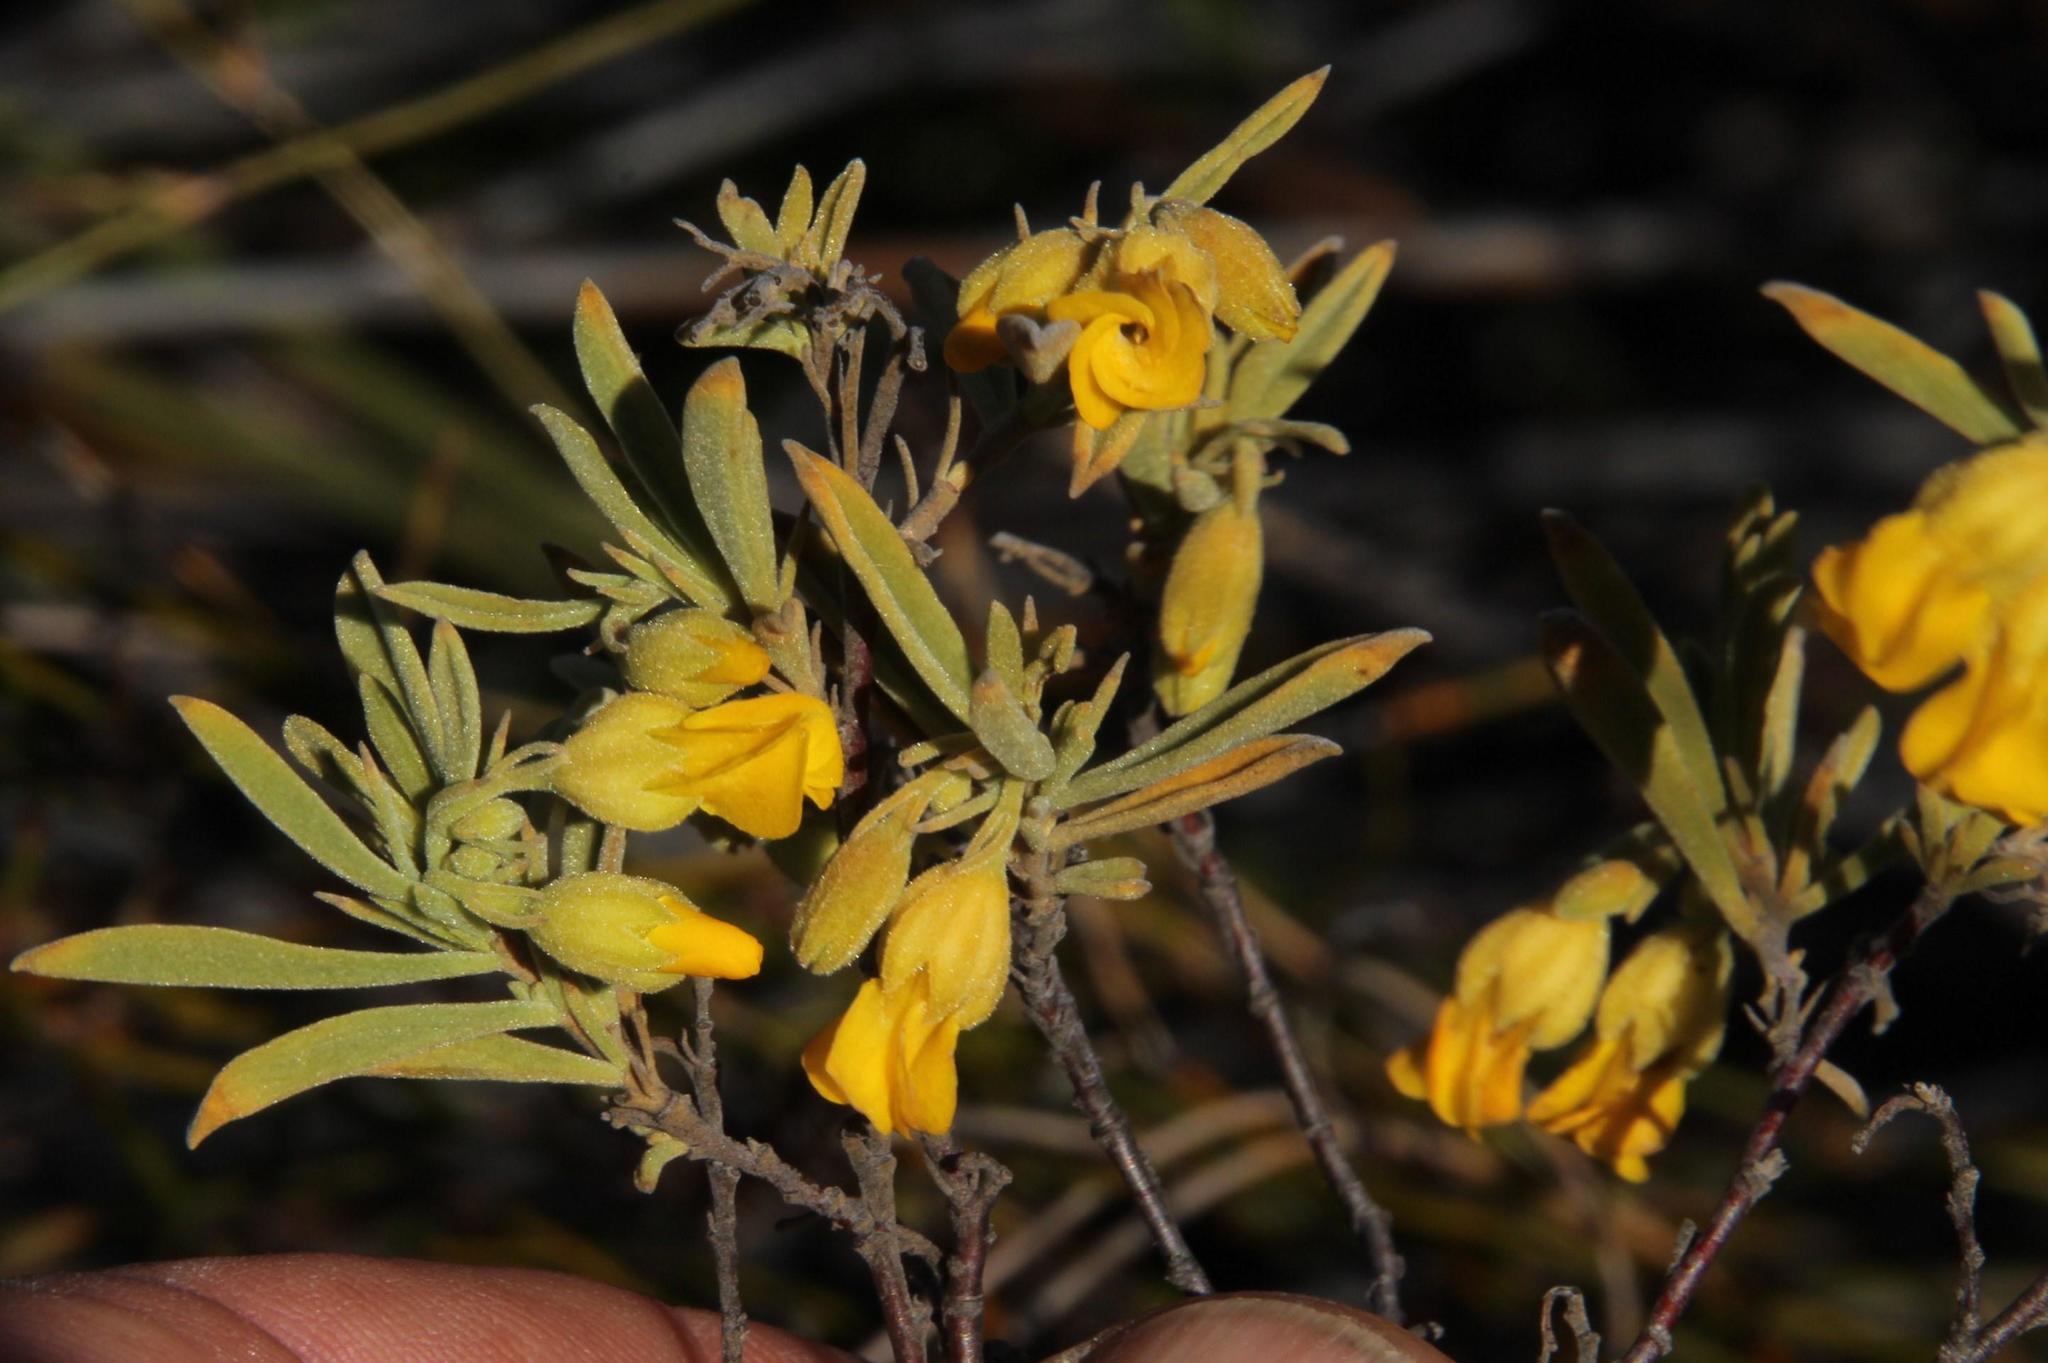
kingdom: Plantae
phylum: Tracheophyta
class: Magnoliopsida
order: Malvales
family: Malvaceae
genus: Hermannia
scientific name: Hermannia odorata
